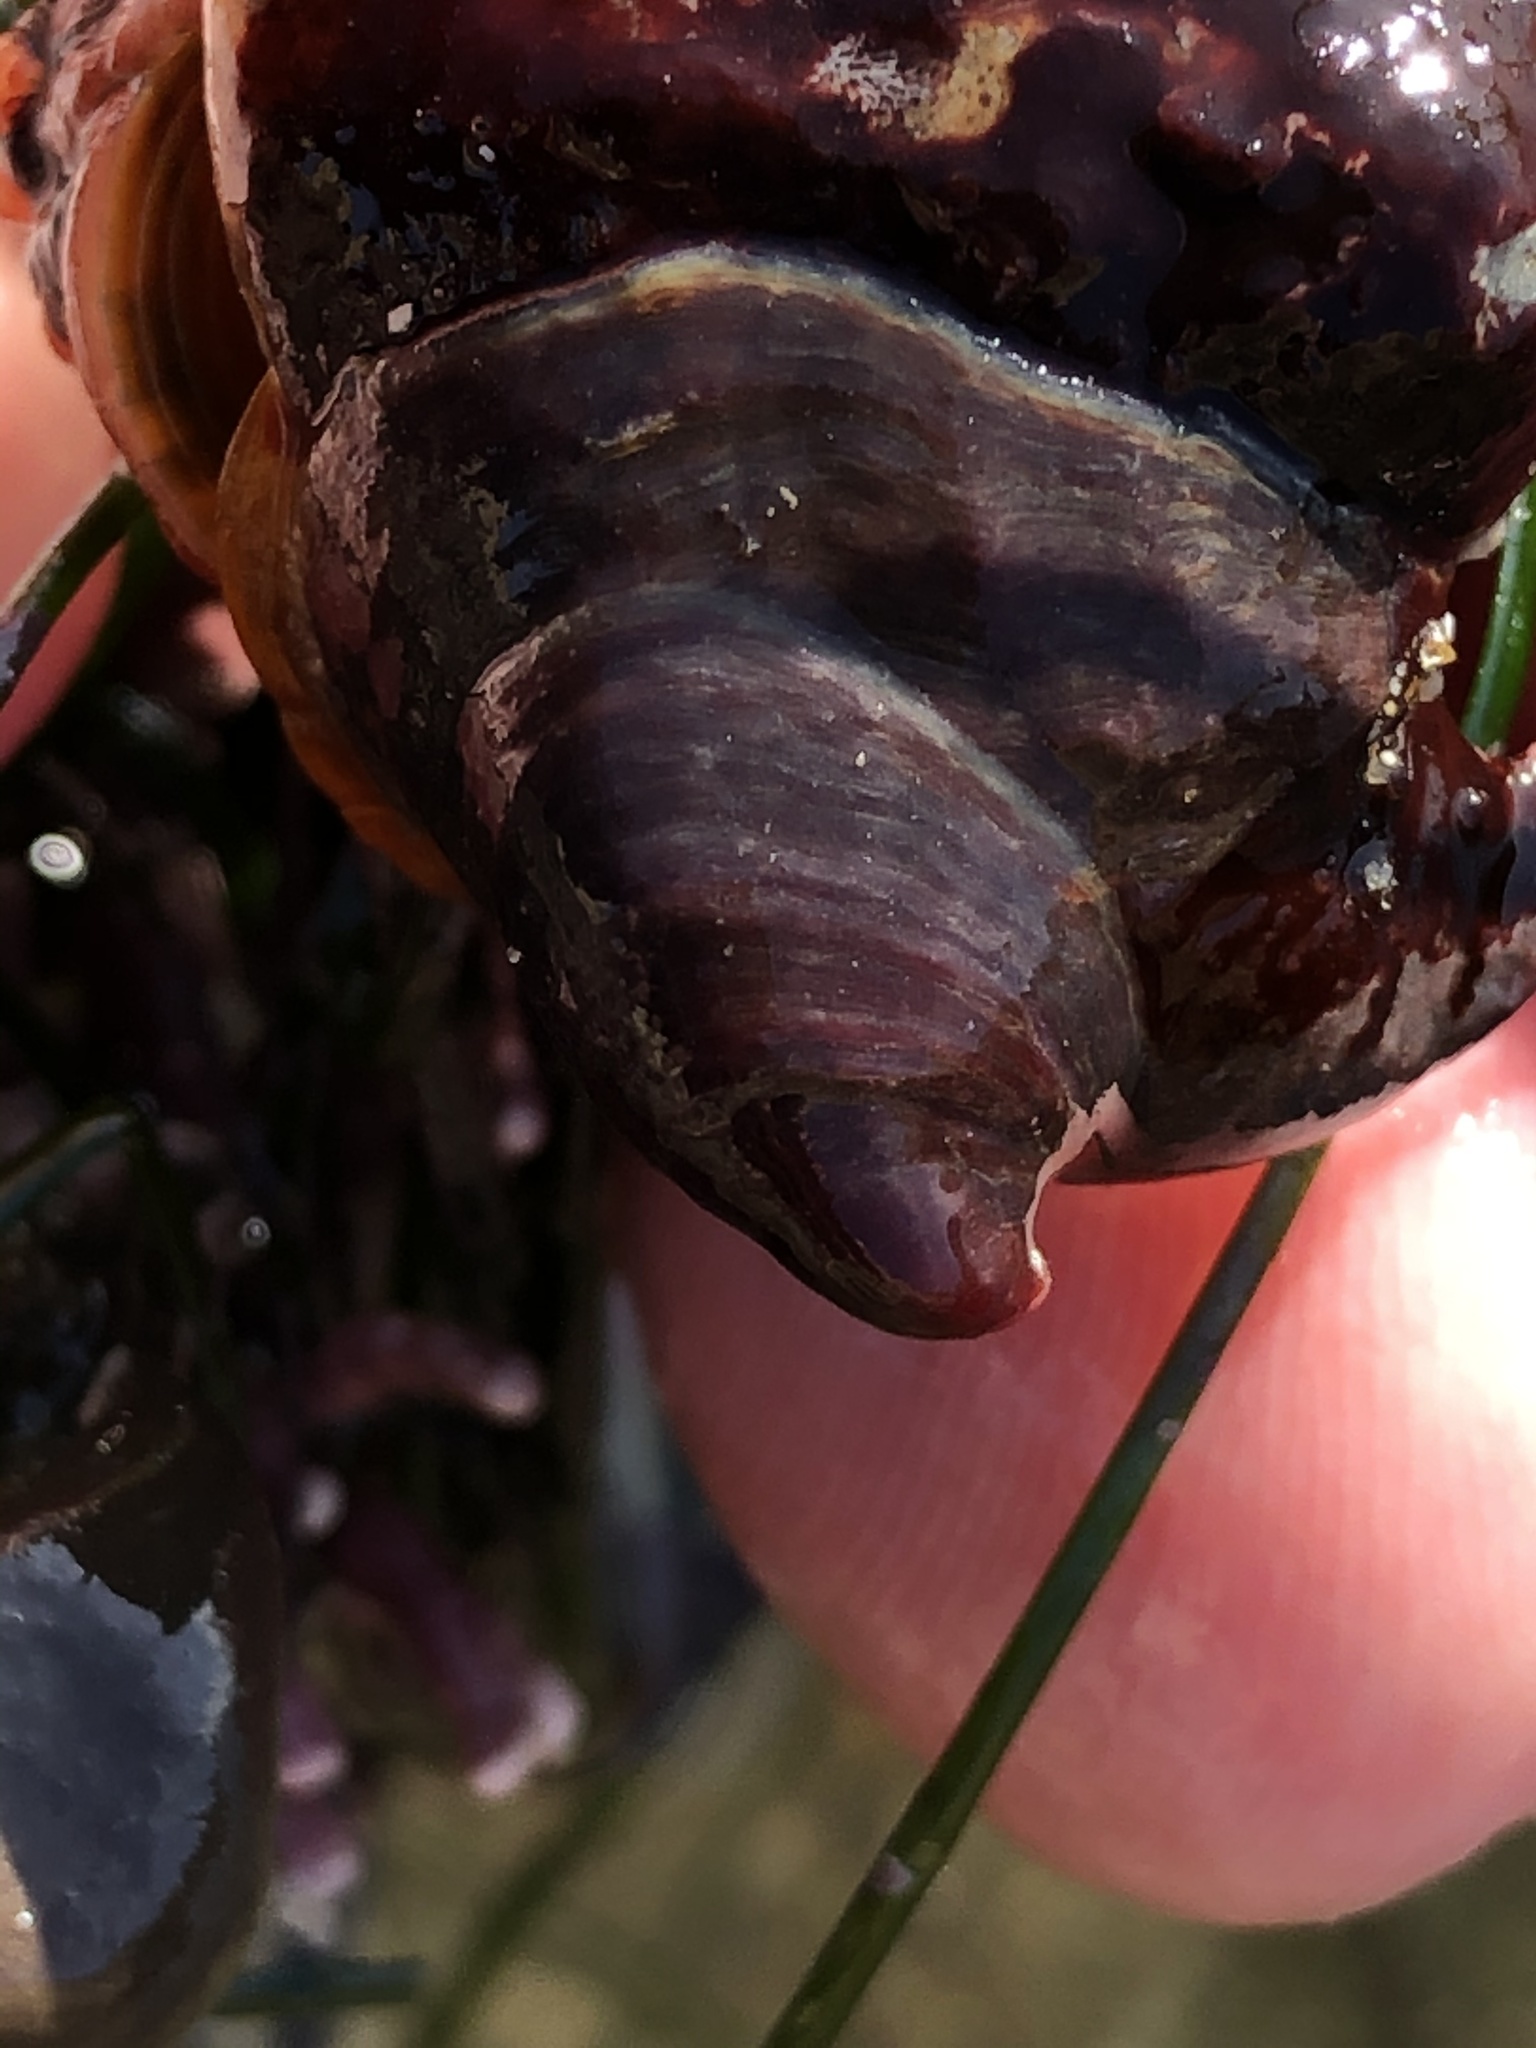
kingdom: Animalia
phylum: Mollusca
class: Gastropoda
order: Littorinimorpha
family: Calyptraeidae
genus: Crepidula
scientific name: Crepidula adunca
